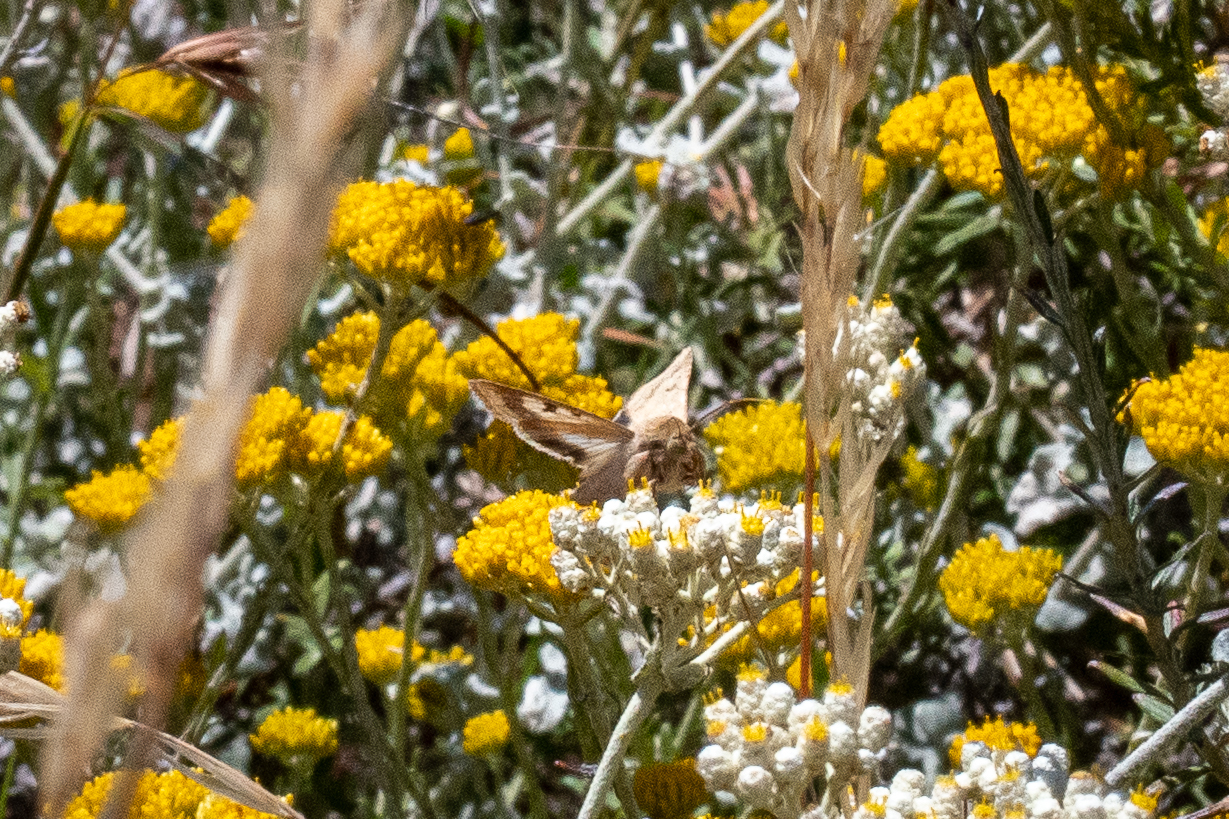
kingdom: Animalia
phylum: Arthropoda
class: Insecta
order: Lepidoptera
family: Noctuidae
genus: Helicoverpa
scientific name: Helicoverpa armigera
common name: Cotton bollworm
